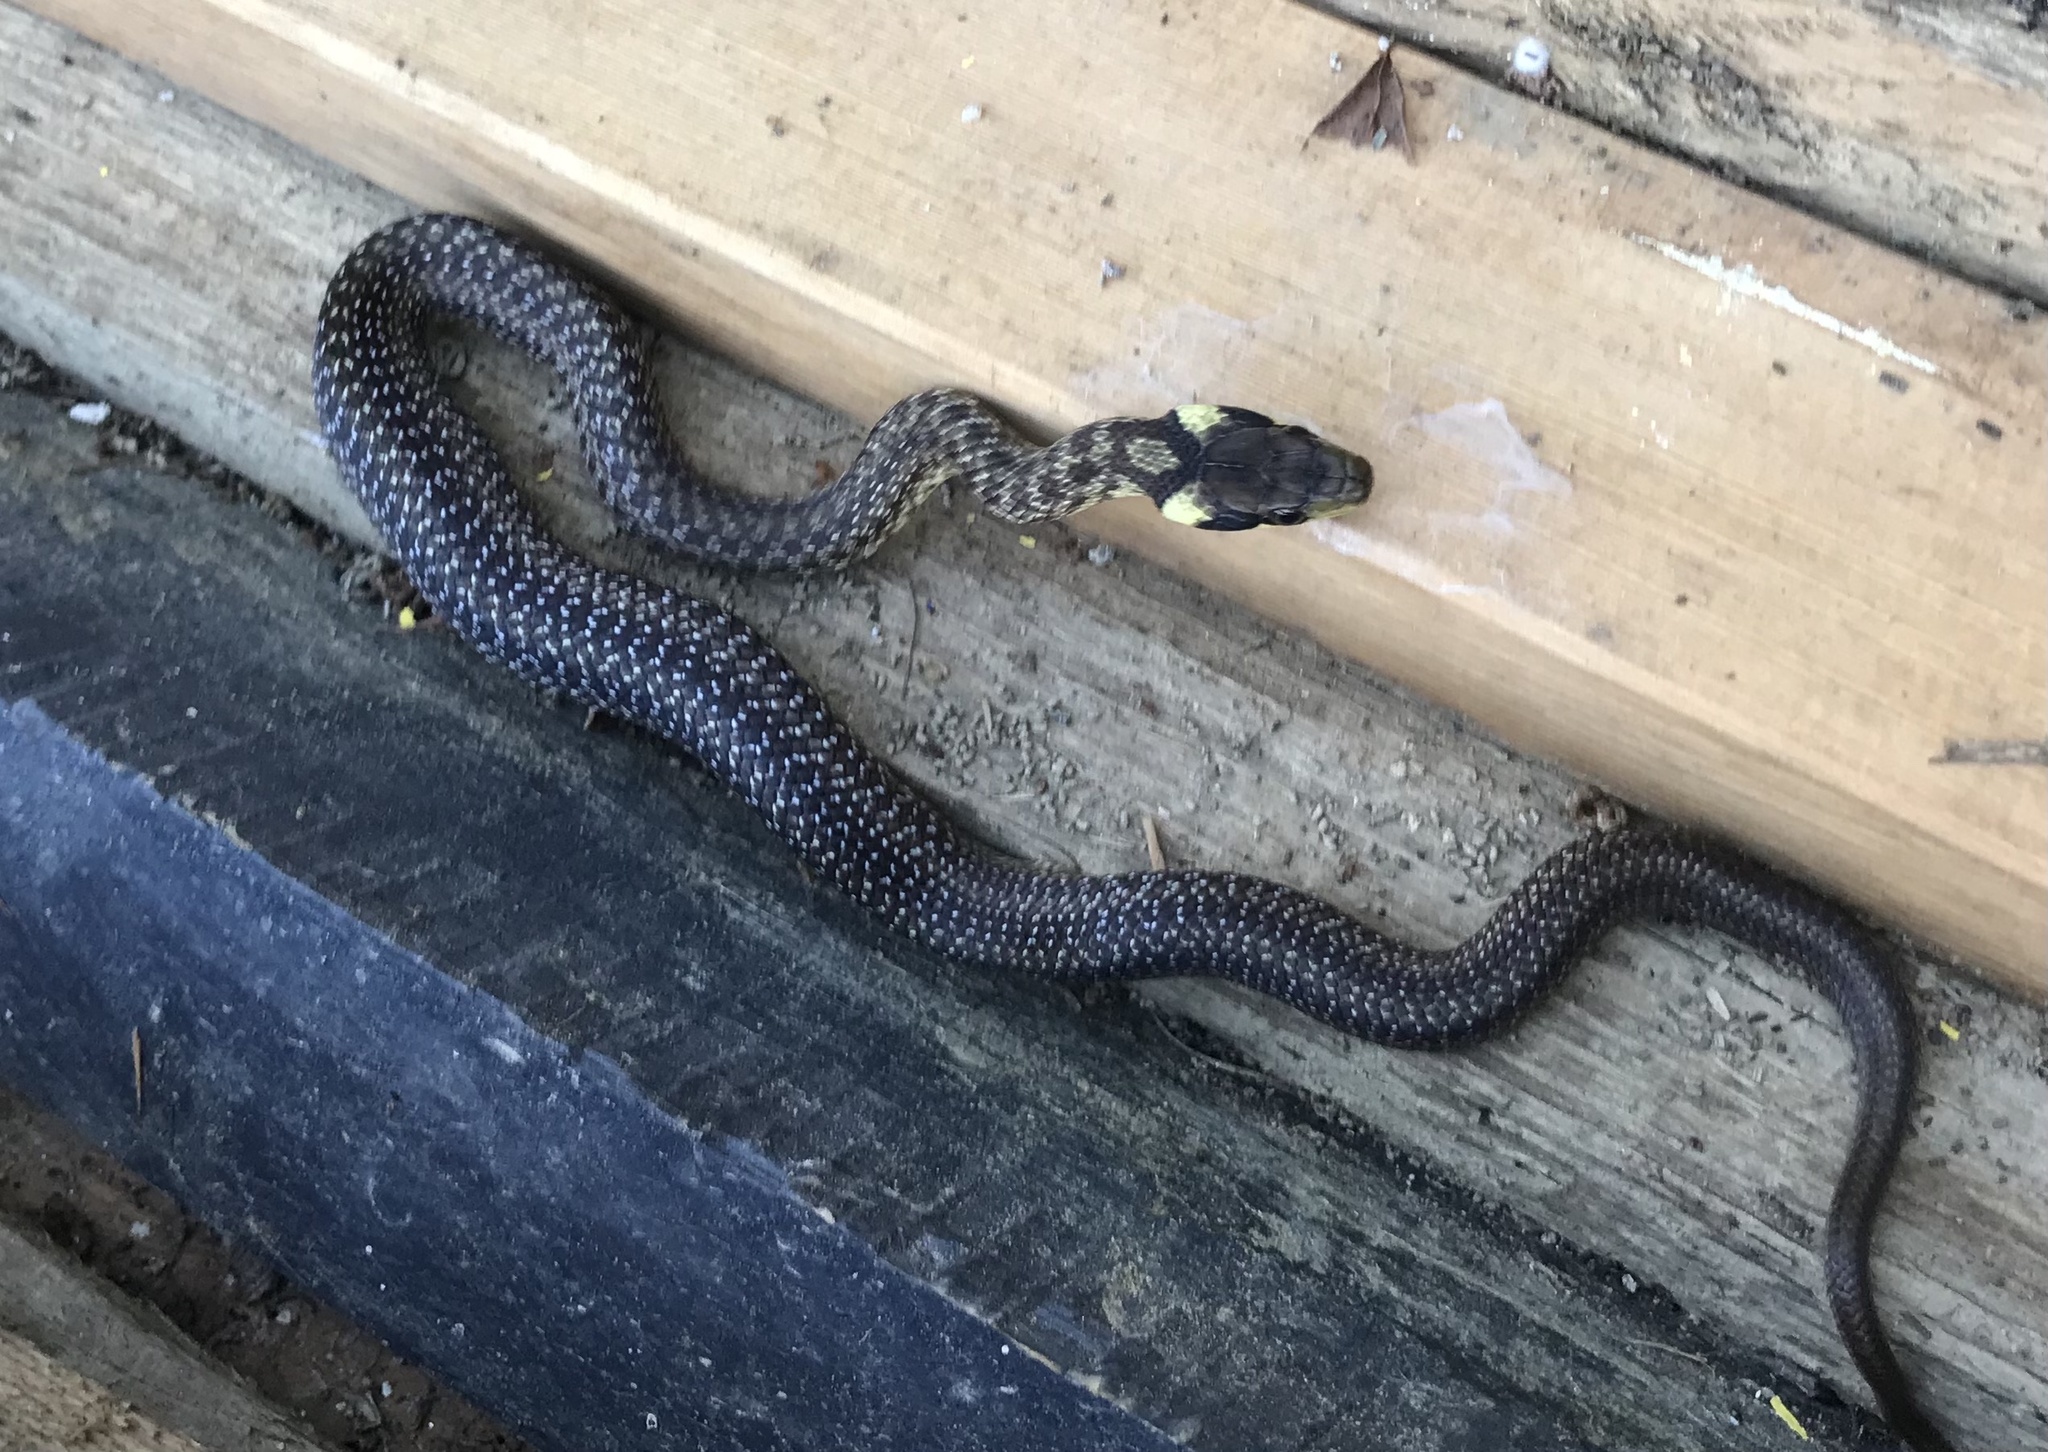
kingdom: Animalia
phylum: Chordata
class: Squamata
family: Colubridae
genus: Zamenis
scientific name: Zamenis longissimus
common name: Aesculapean snake
